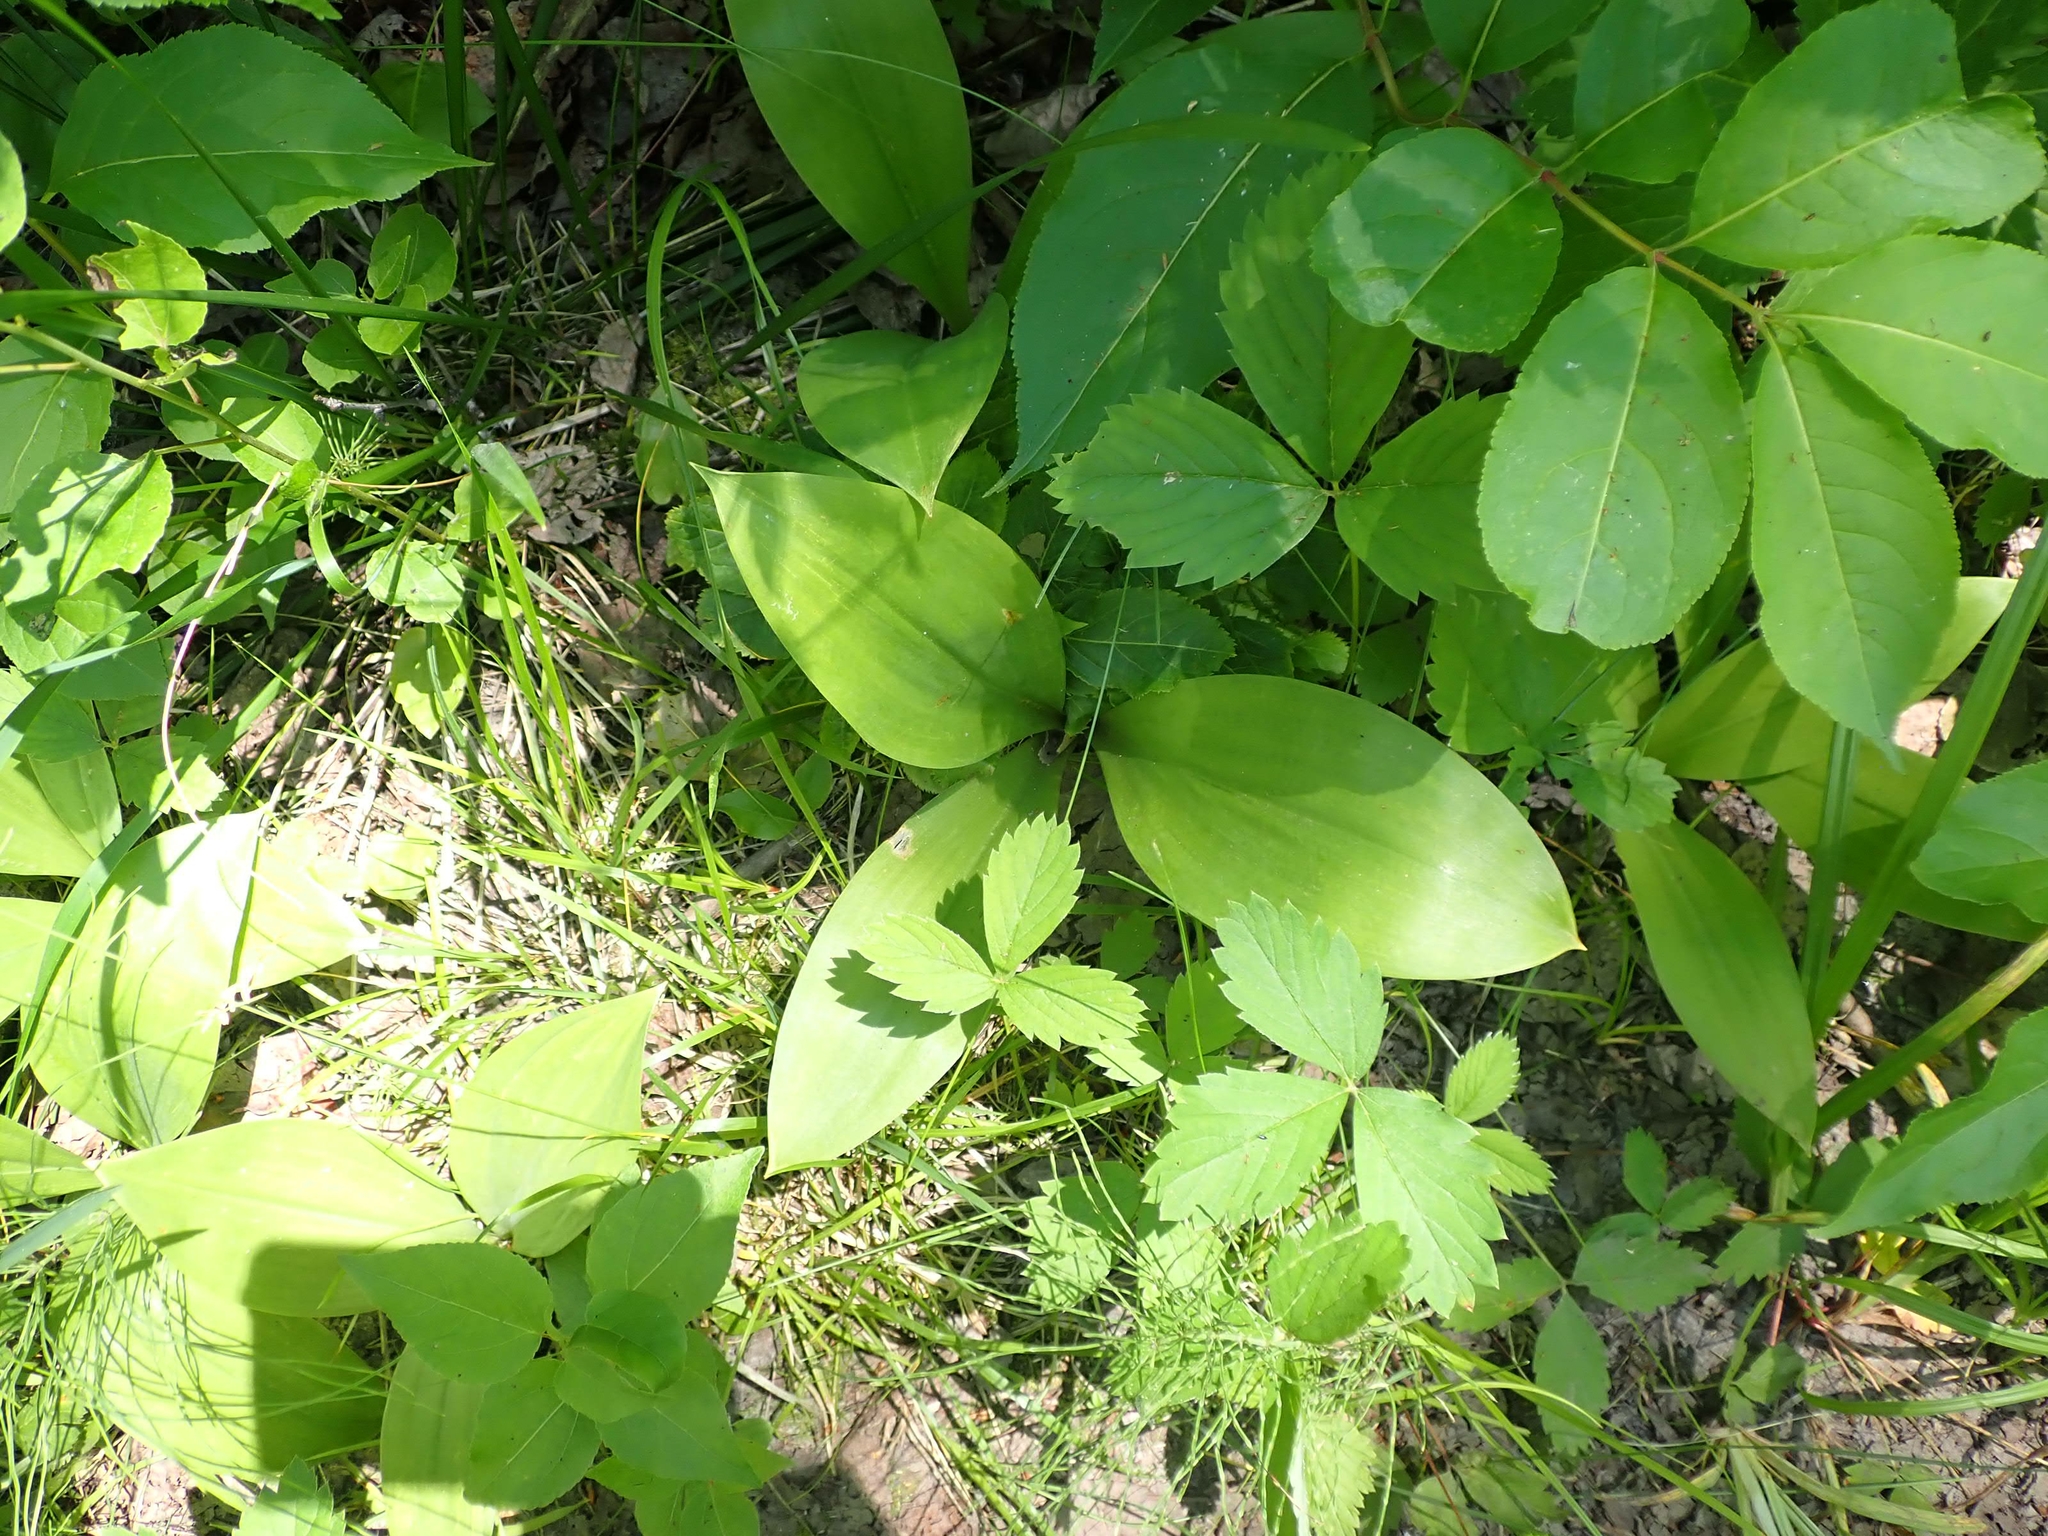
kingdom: Plantae
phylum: Tracheophyta
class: Liliopsida
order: Liliales
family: Liliaceae
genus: Clintonia
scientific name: Clintonia borealis
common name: Yellow clintonia
